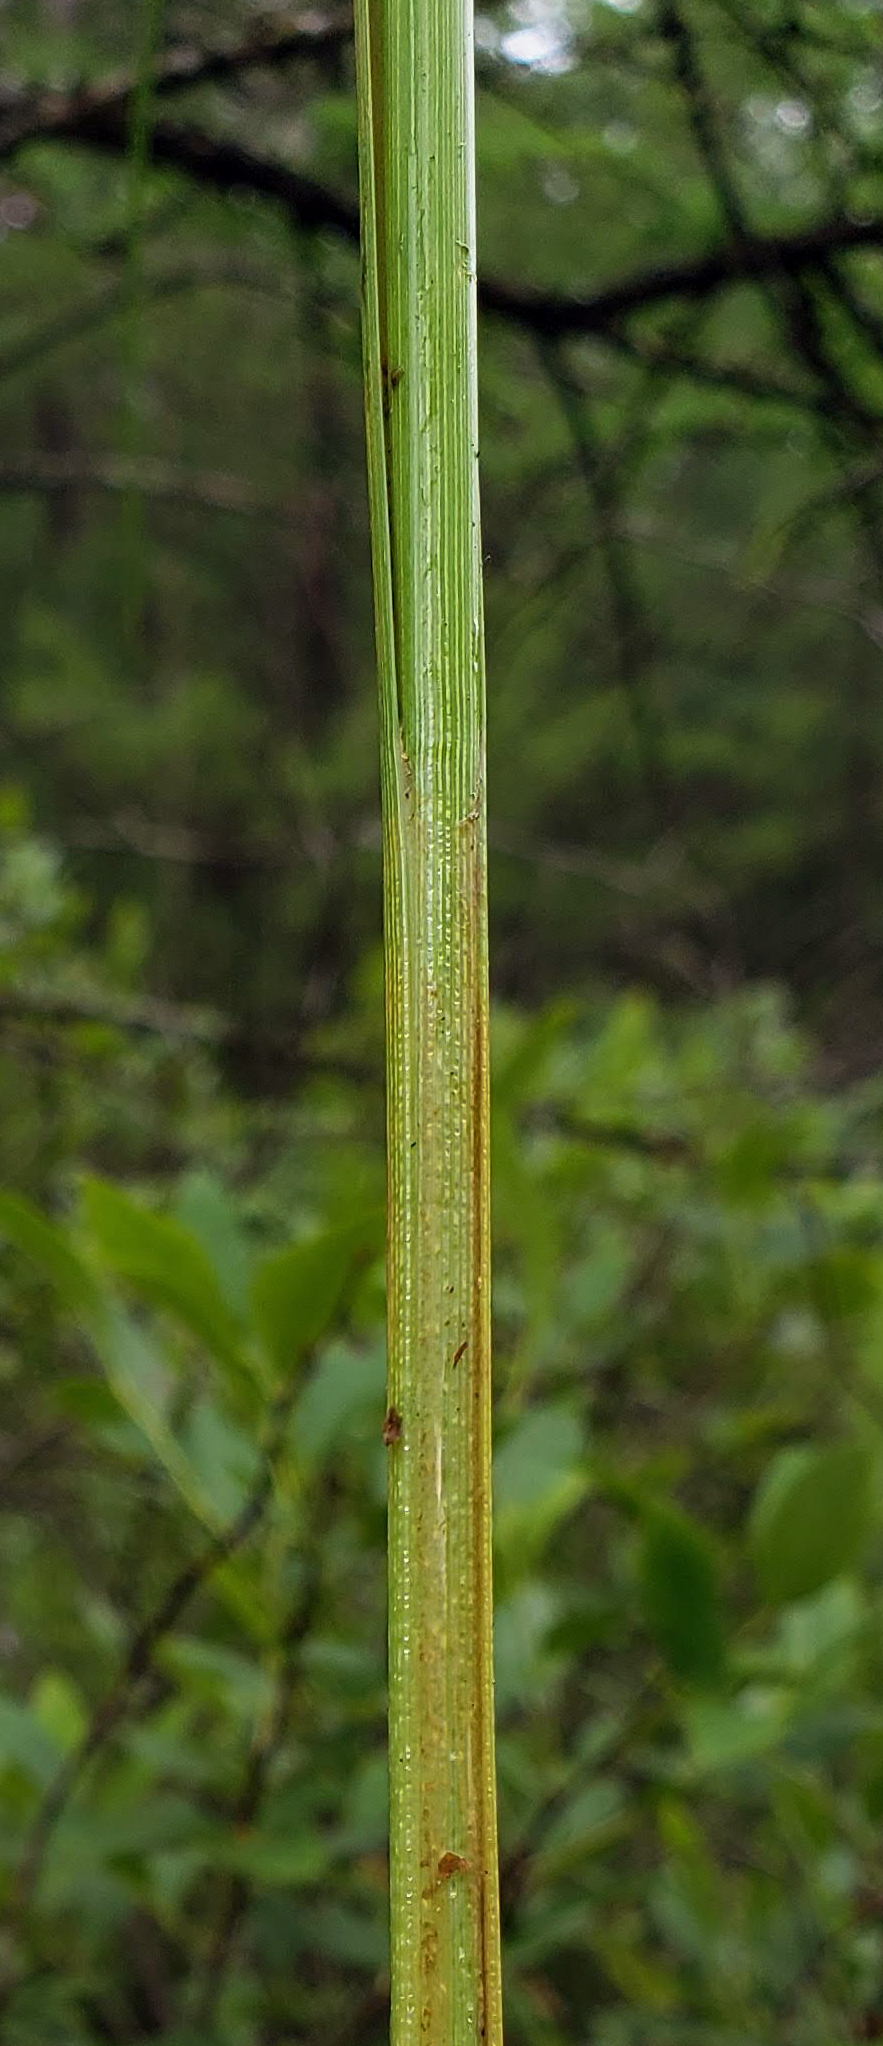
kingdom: Plantae
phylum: Tracheophyta
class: Liliopsida
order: Poales
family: Cyperaceae
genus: Carex
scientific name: Carex utriculata
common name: Beaked sedge
